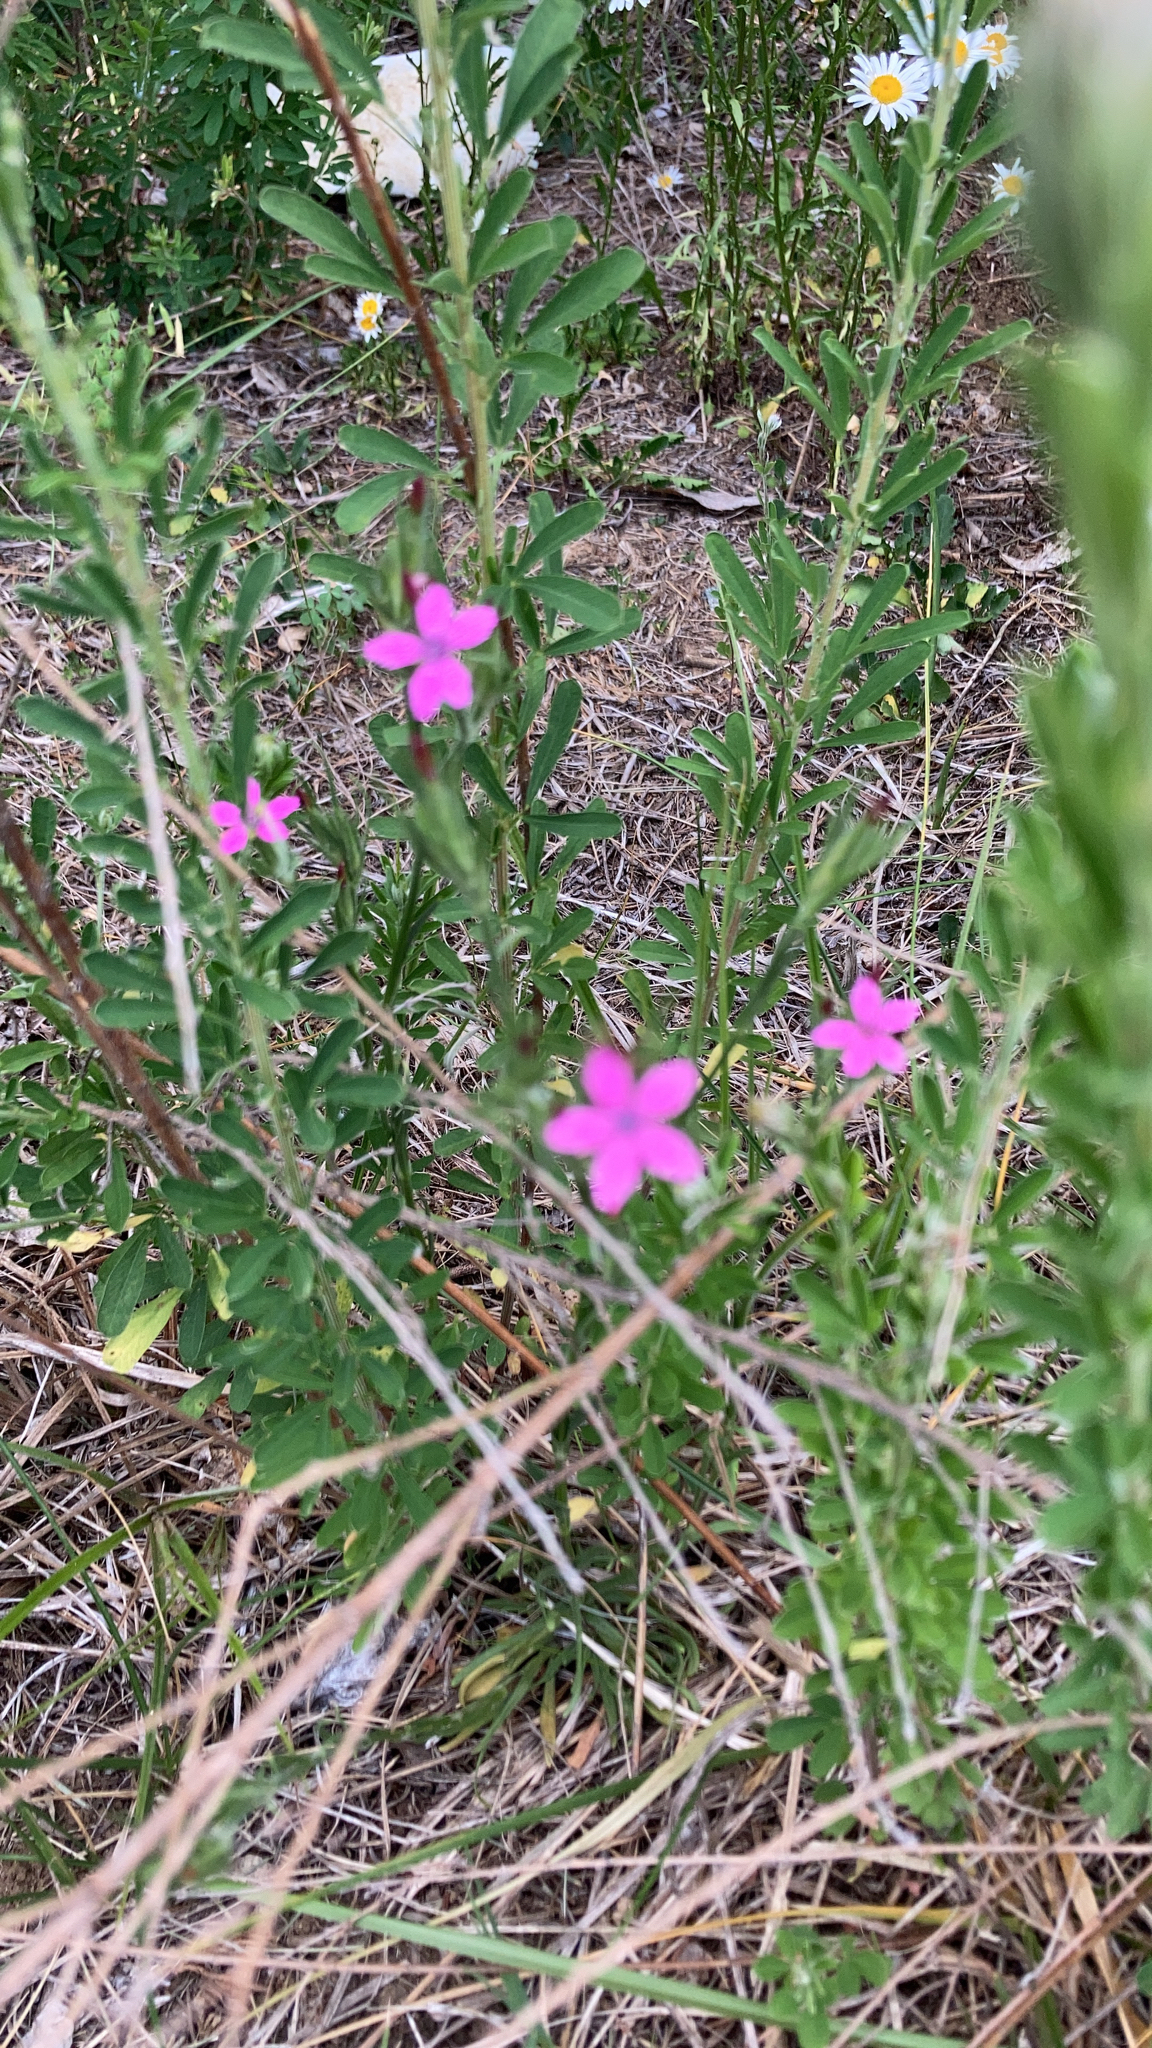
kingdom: Plantae
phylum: Tracheophyta
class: Magnoliopsida
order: Caryophyllales
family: Caryophyllaceae
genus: Dianthus
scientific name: Dianthus armeria
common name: Deptford pink
